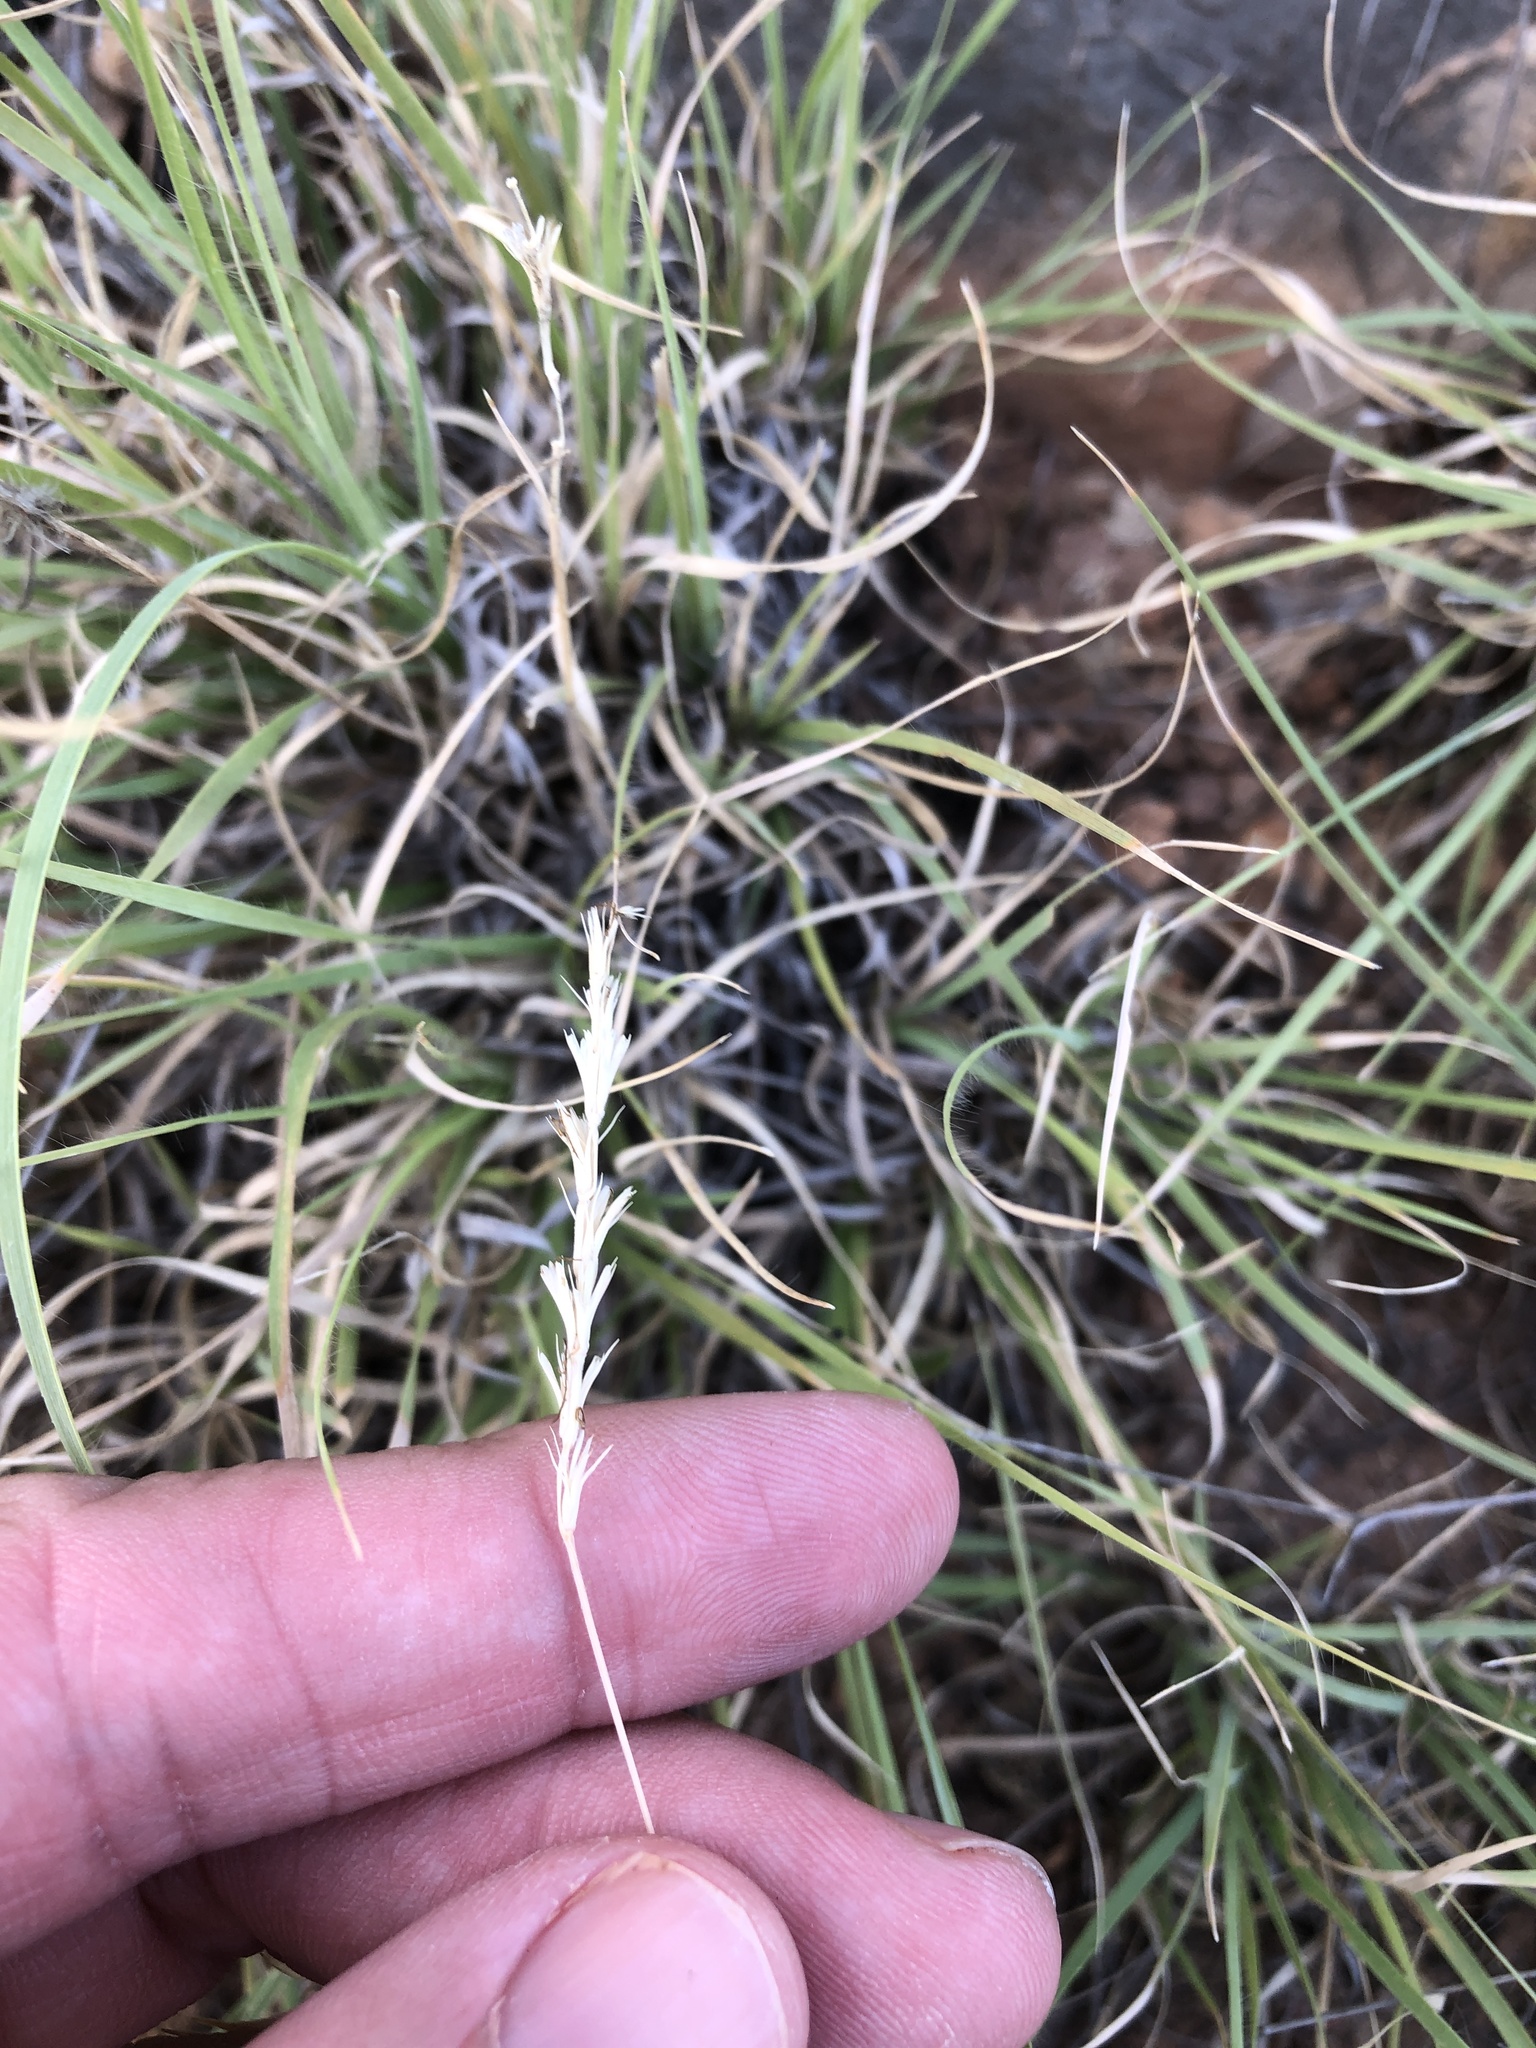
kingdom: Plantae
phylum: Tracheophyta
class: Liliopsida
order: Poales
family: Poaceae
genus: Hilaria
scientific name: Hilaria belangeri
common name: Curly-mesquite
